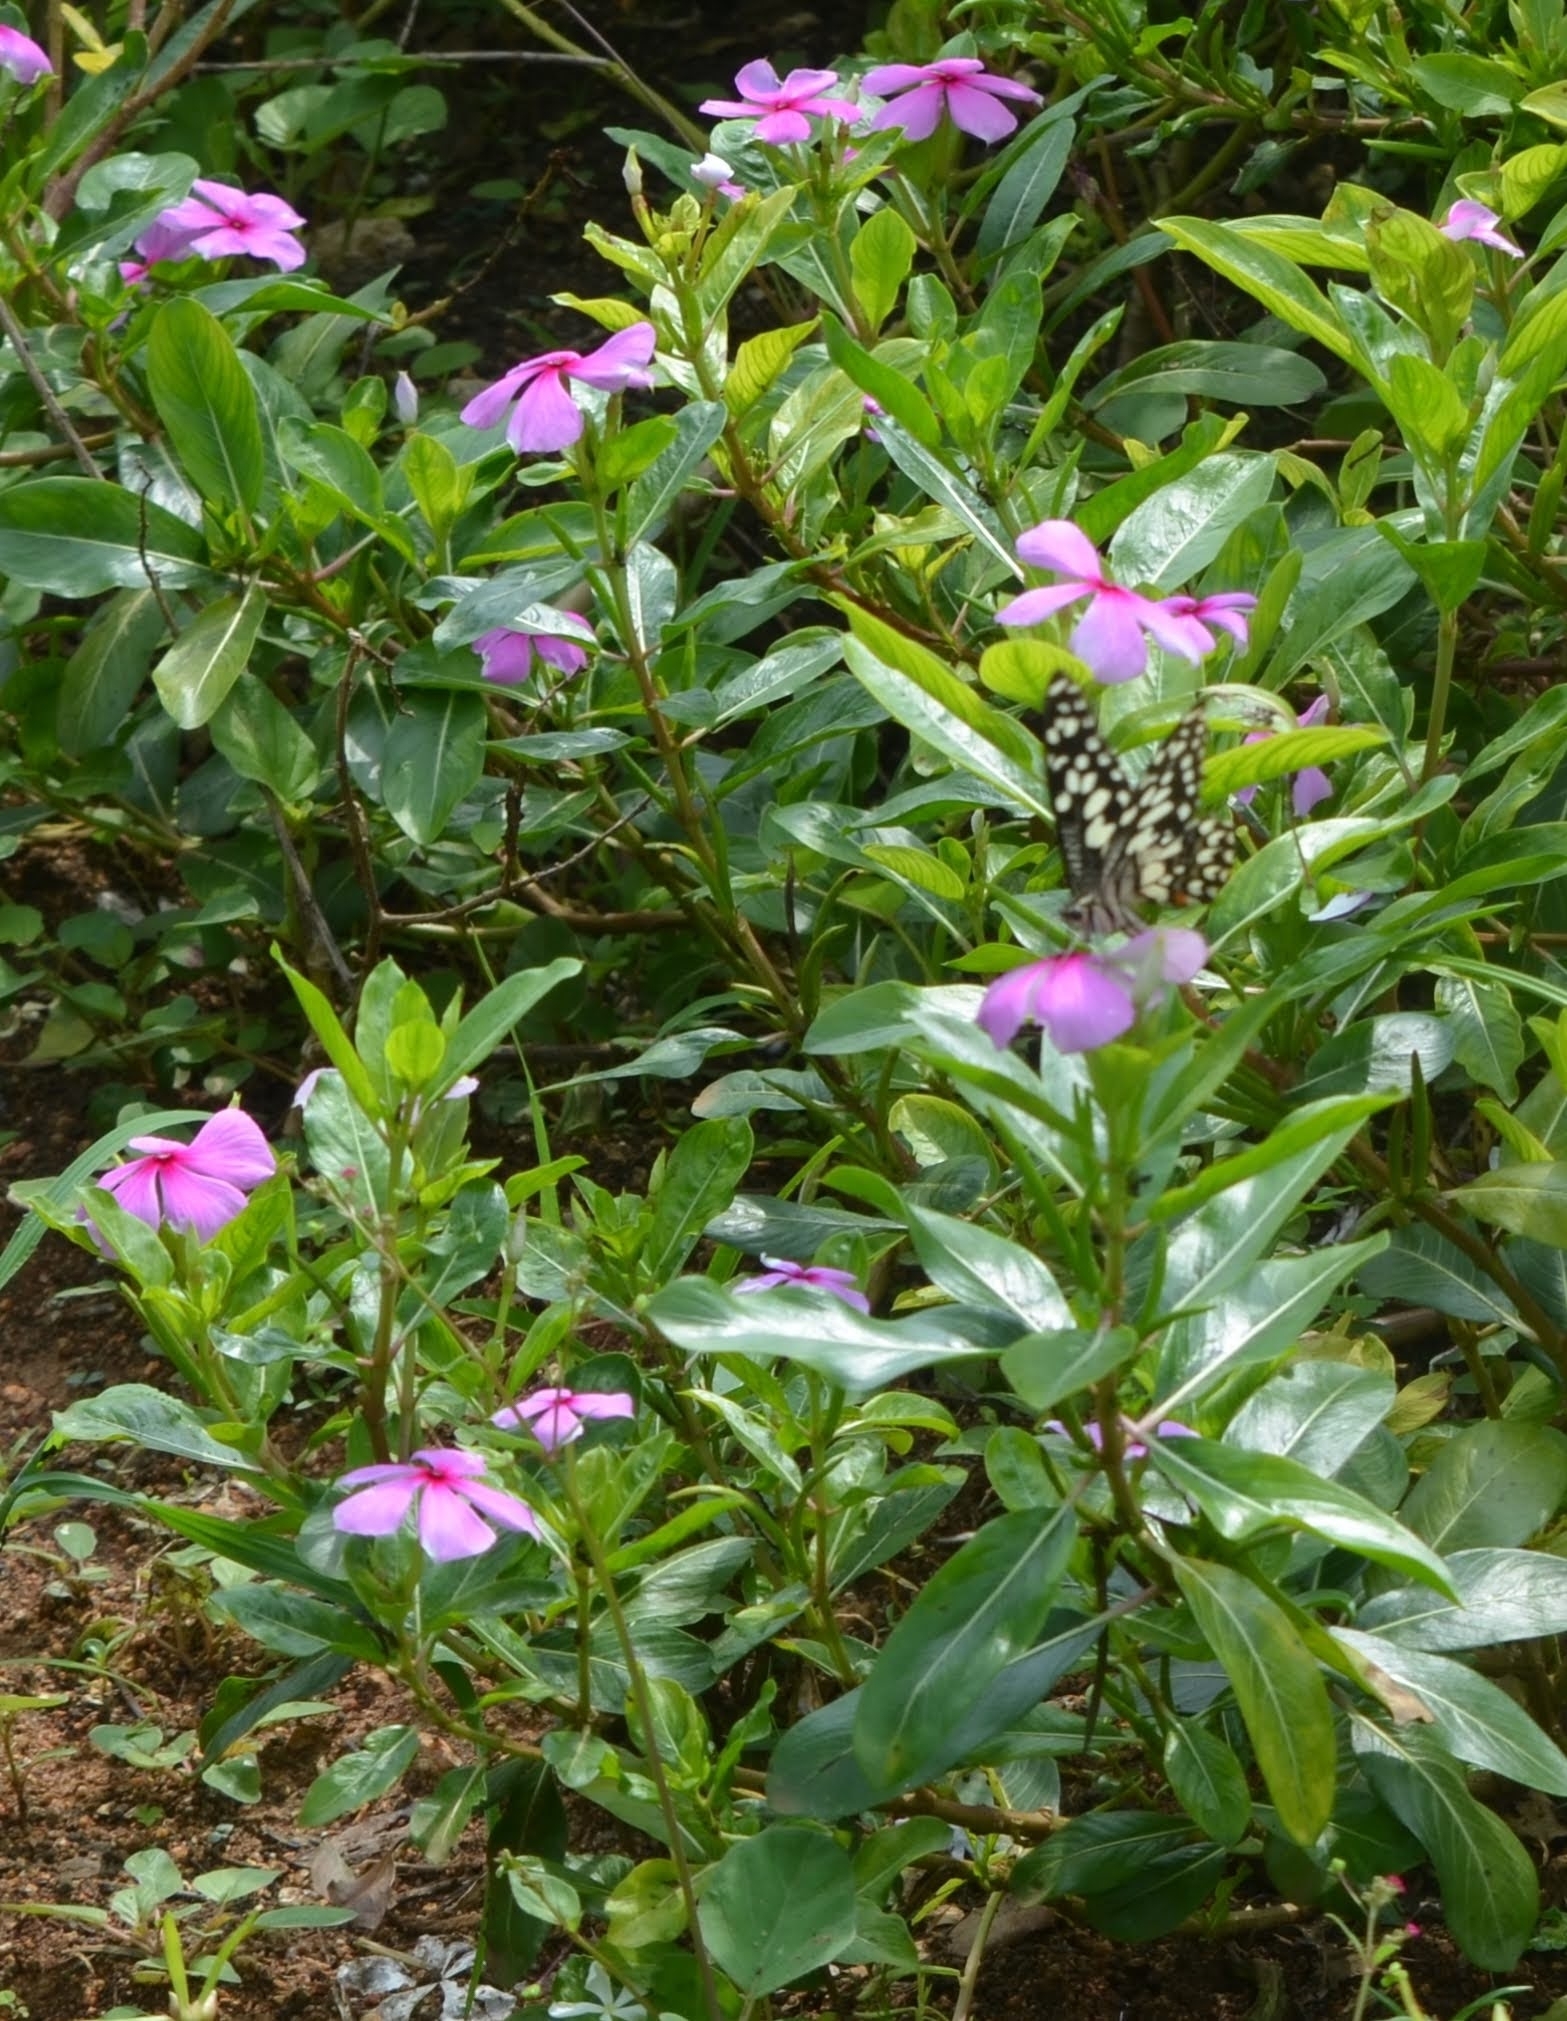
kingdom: Animalia
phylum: Arthropoda
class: Insecta
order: Lepidoptera
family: Papilionidae
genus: Papilio
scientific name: Papilio demoleus
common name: Lime butterfly
